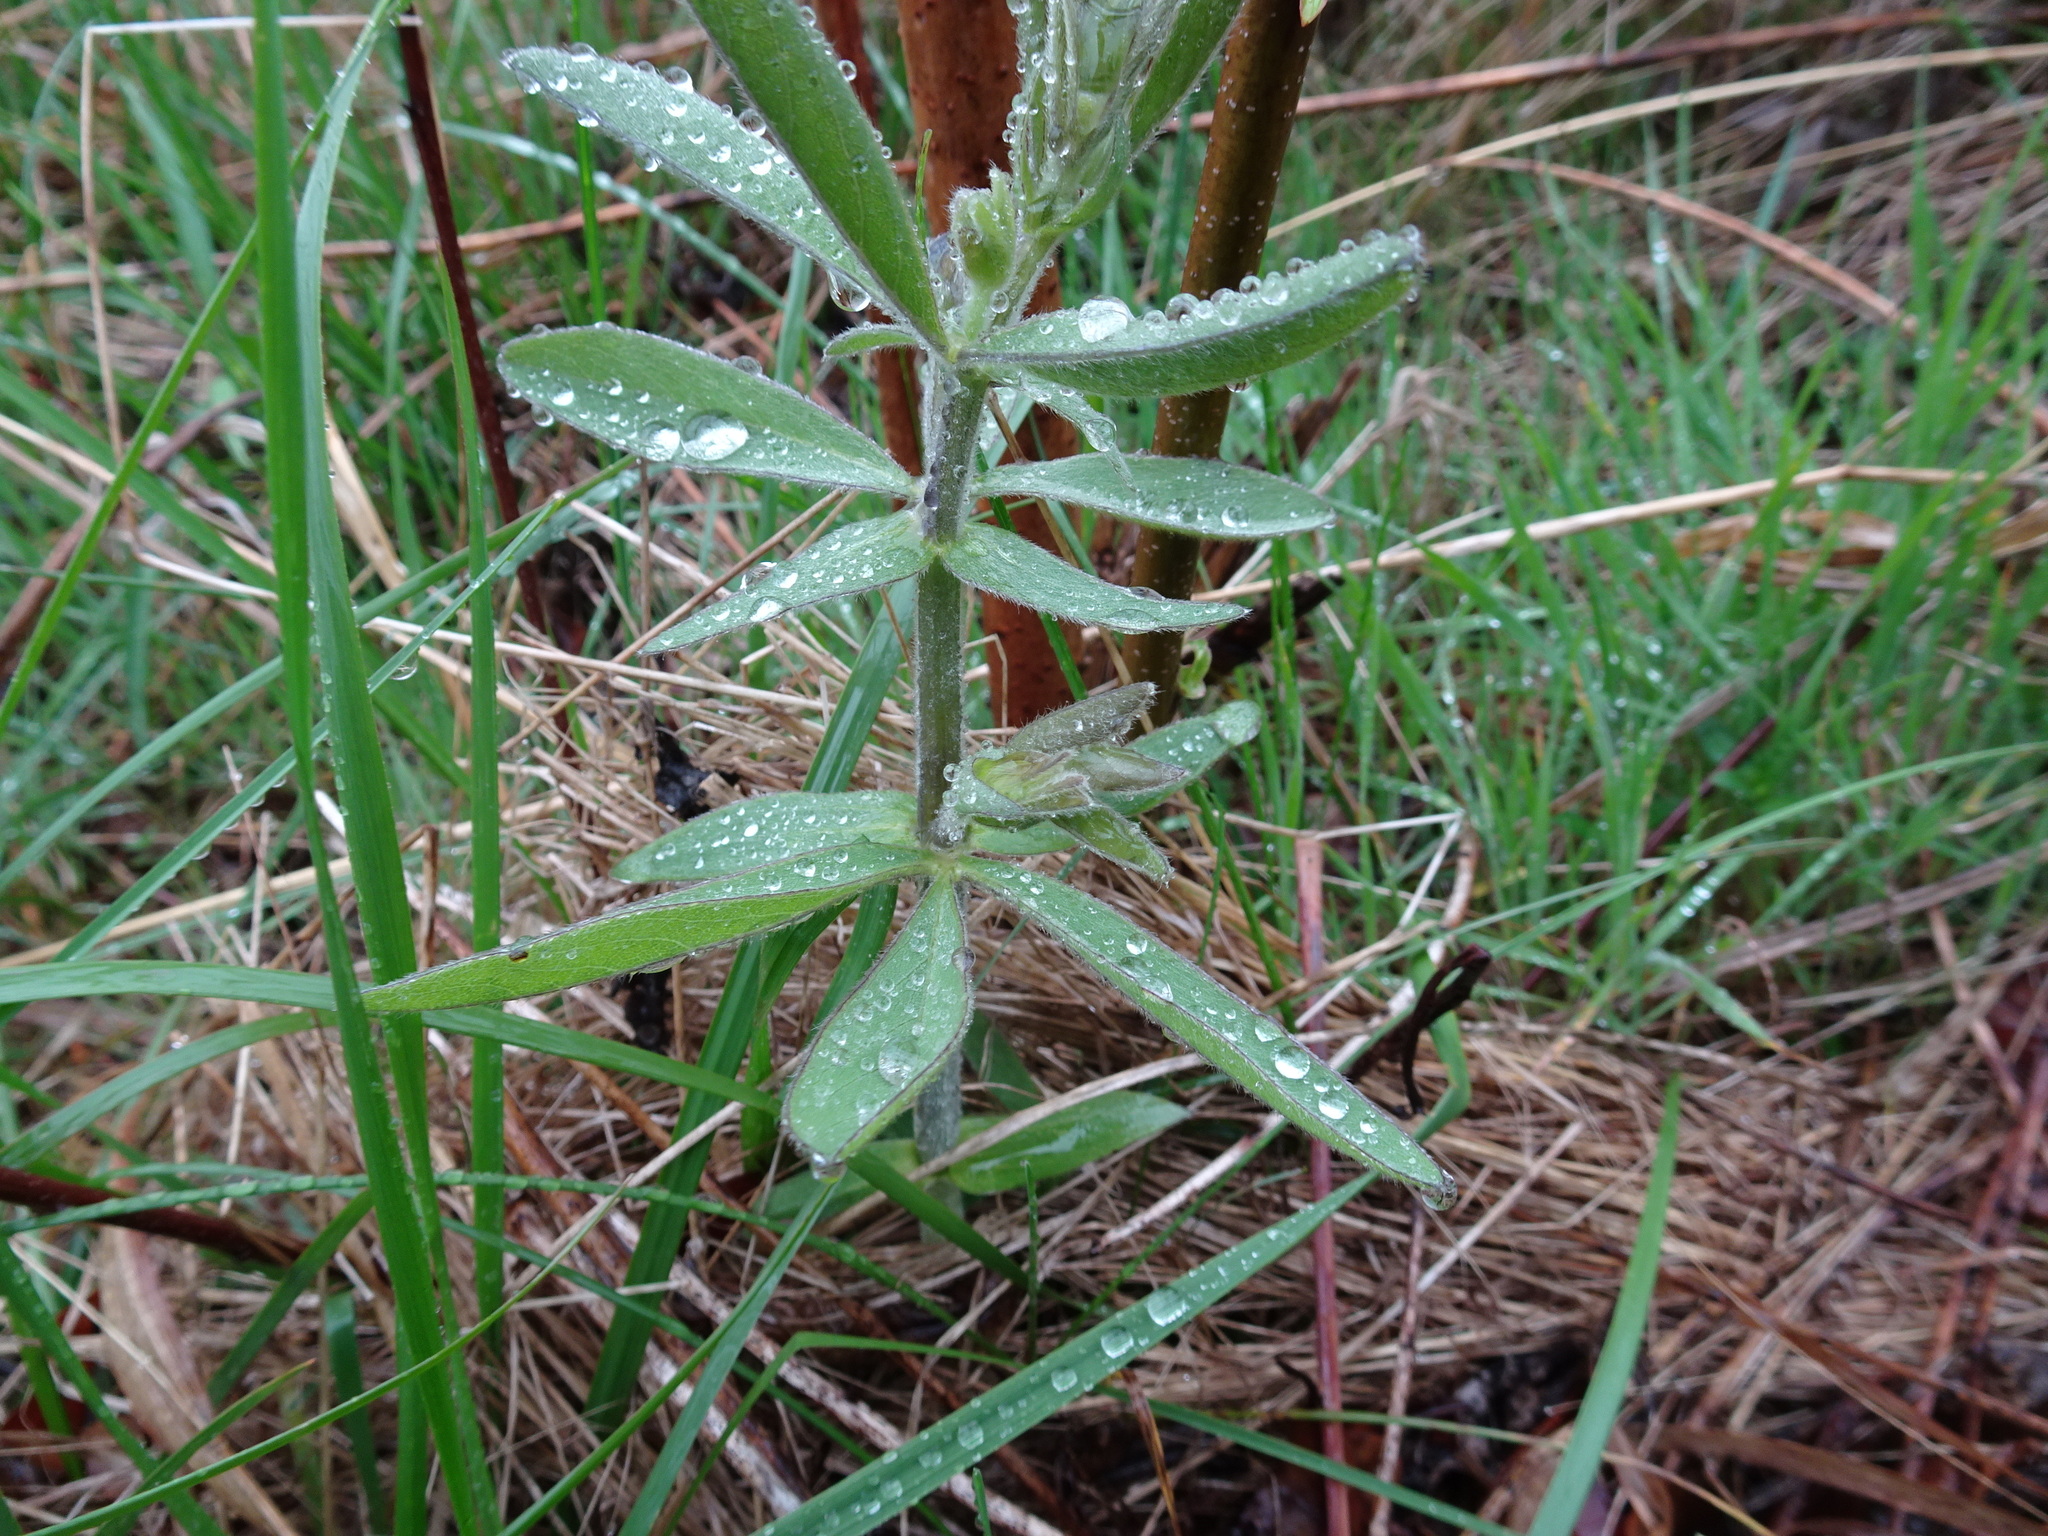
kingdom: Plantae
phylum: Tracheophyta
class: Magnoliopsida
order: Fabales
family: Fabaceae
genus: Baptisia
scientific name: Baptisia bracteata
